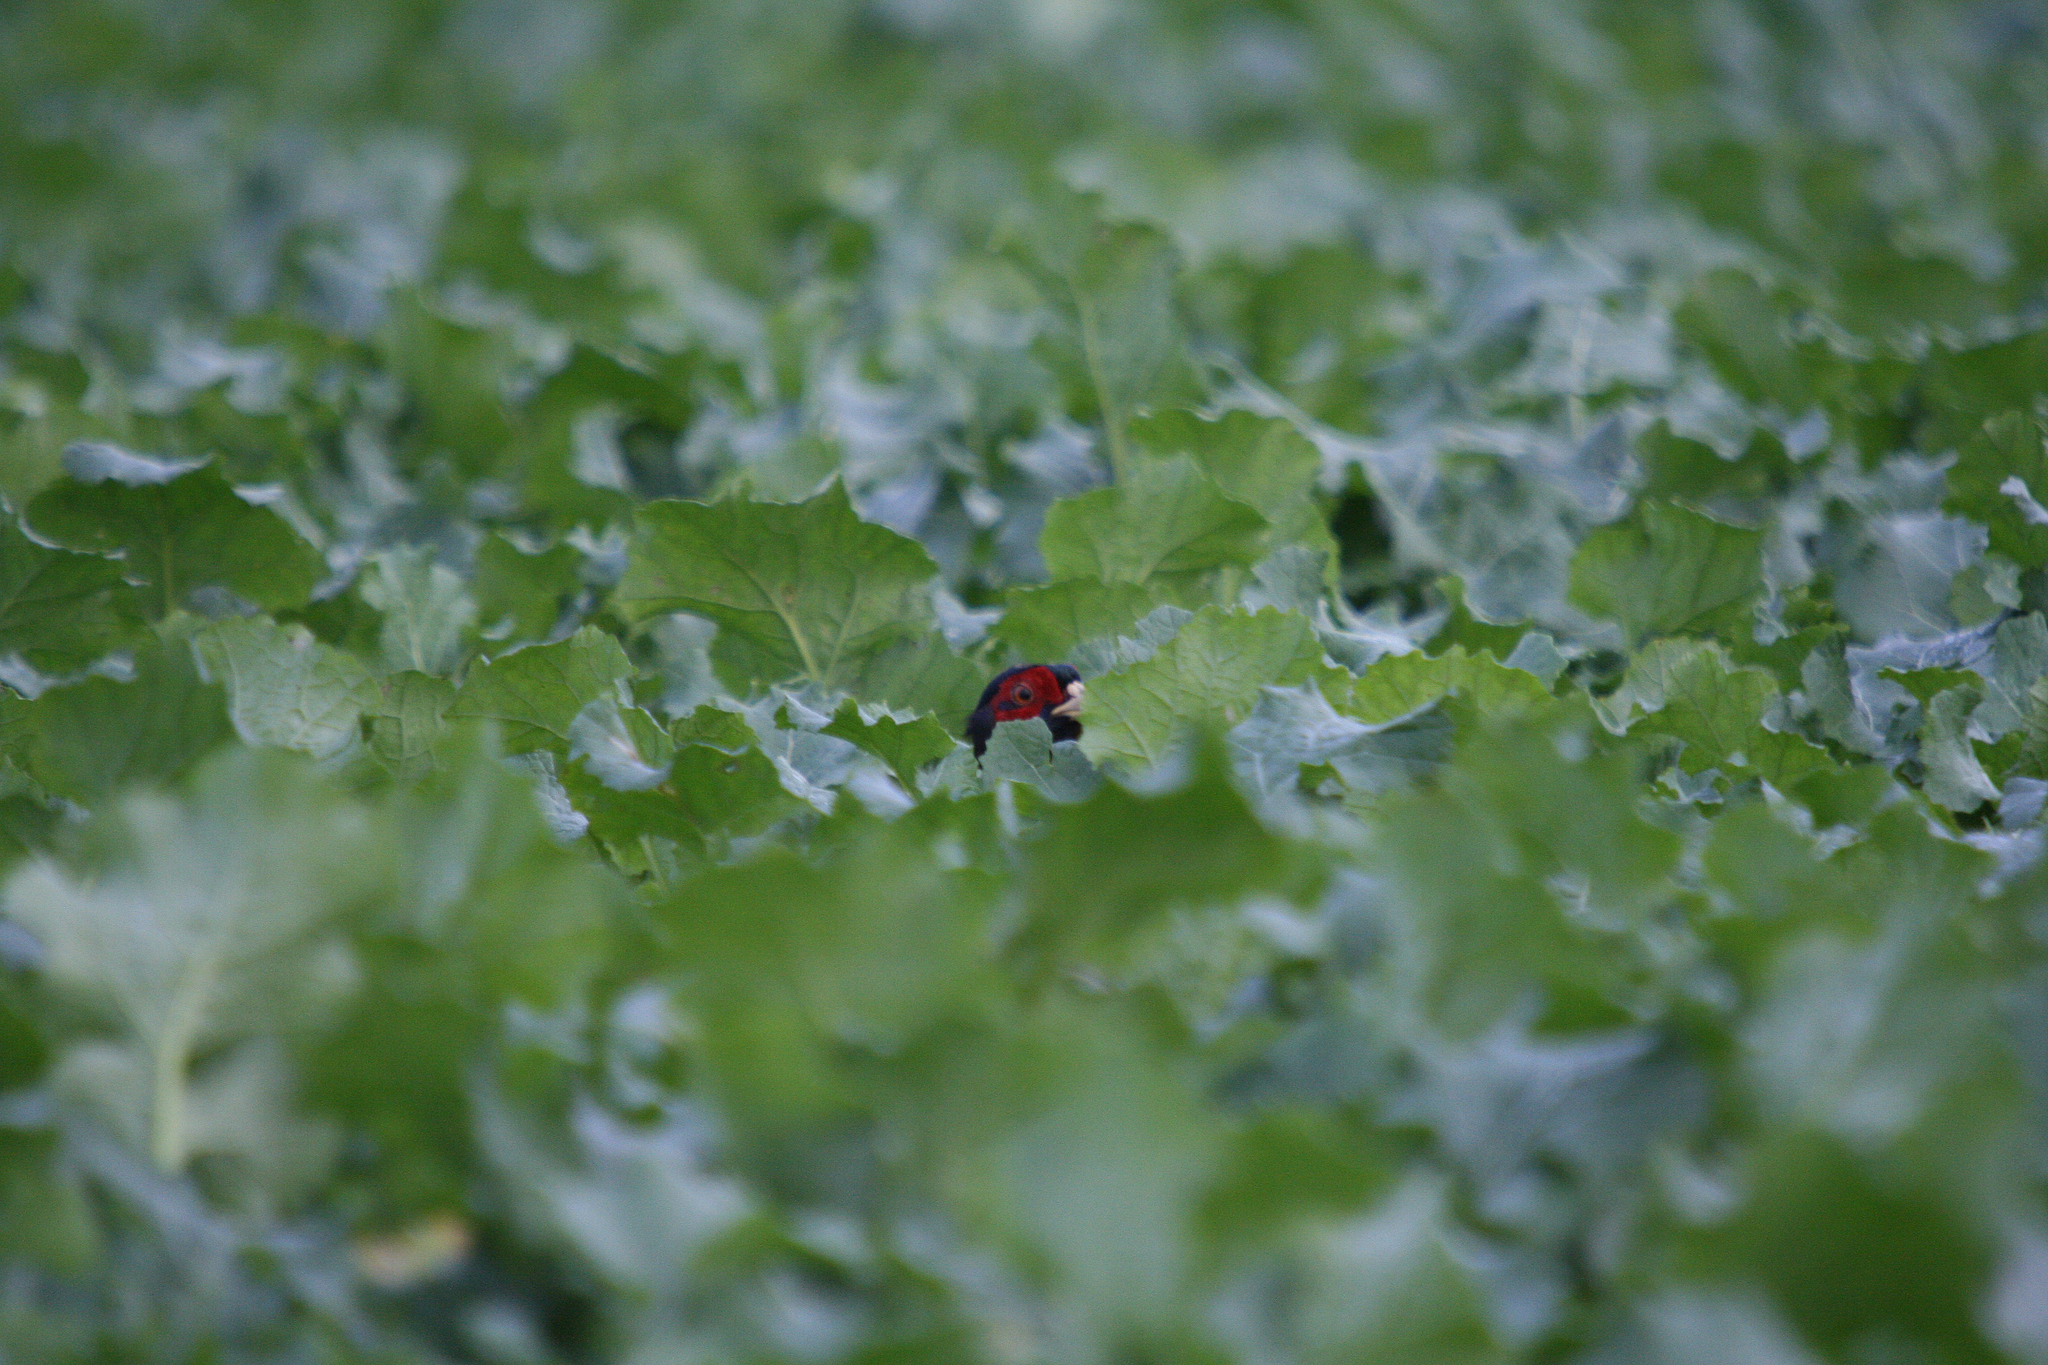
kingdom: Animalia
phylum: Chordata
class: Aves
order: Galliformes
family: Phasianidae
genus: Phasianus
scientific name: Phasianus colchicus
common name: Common pheasant
